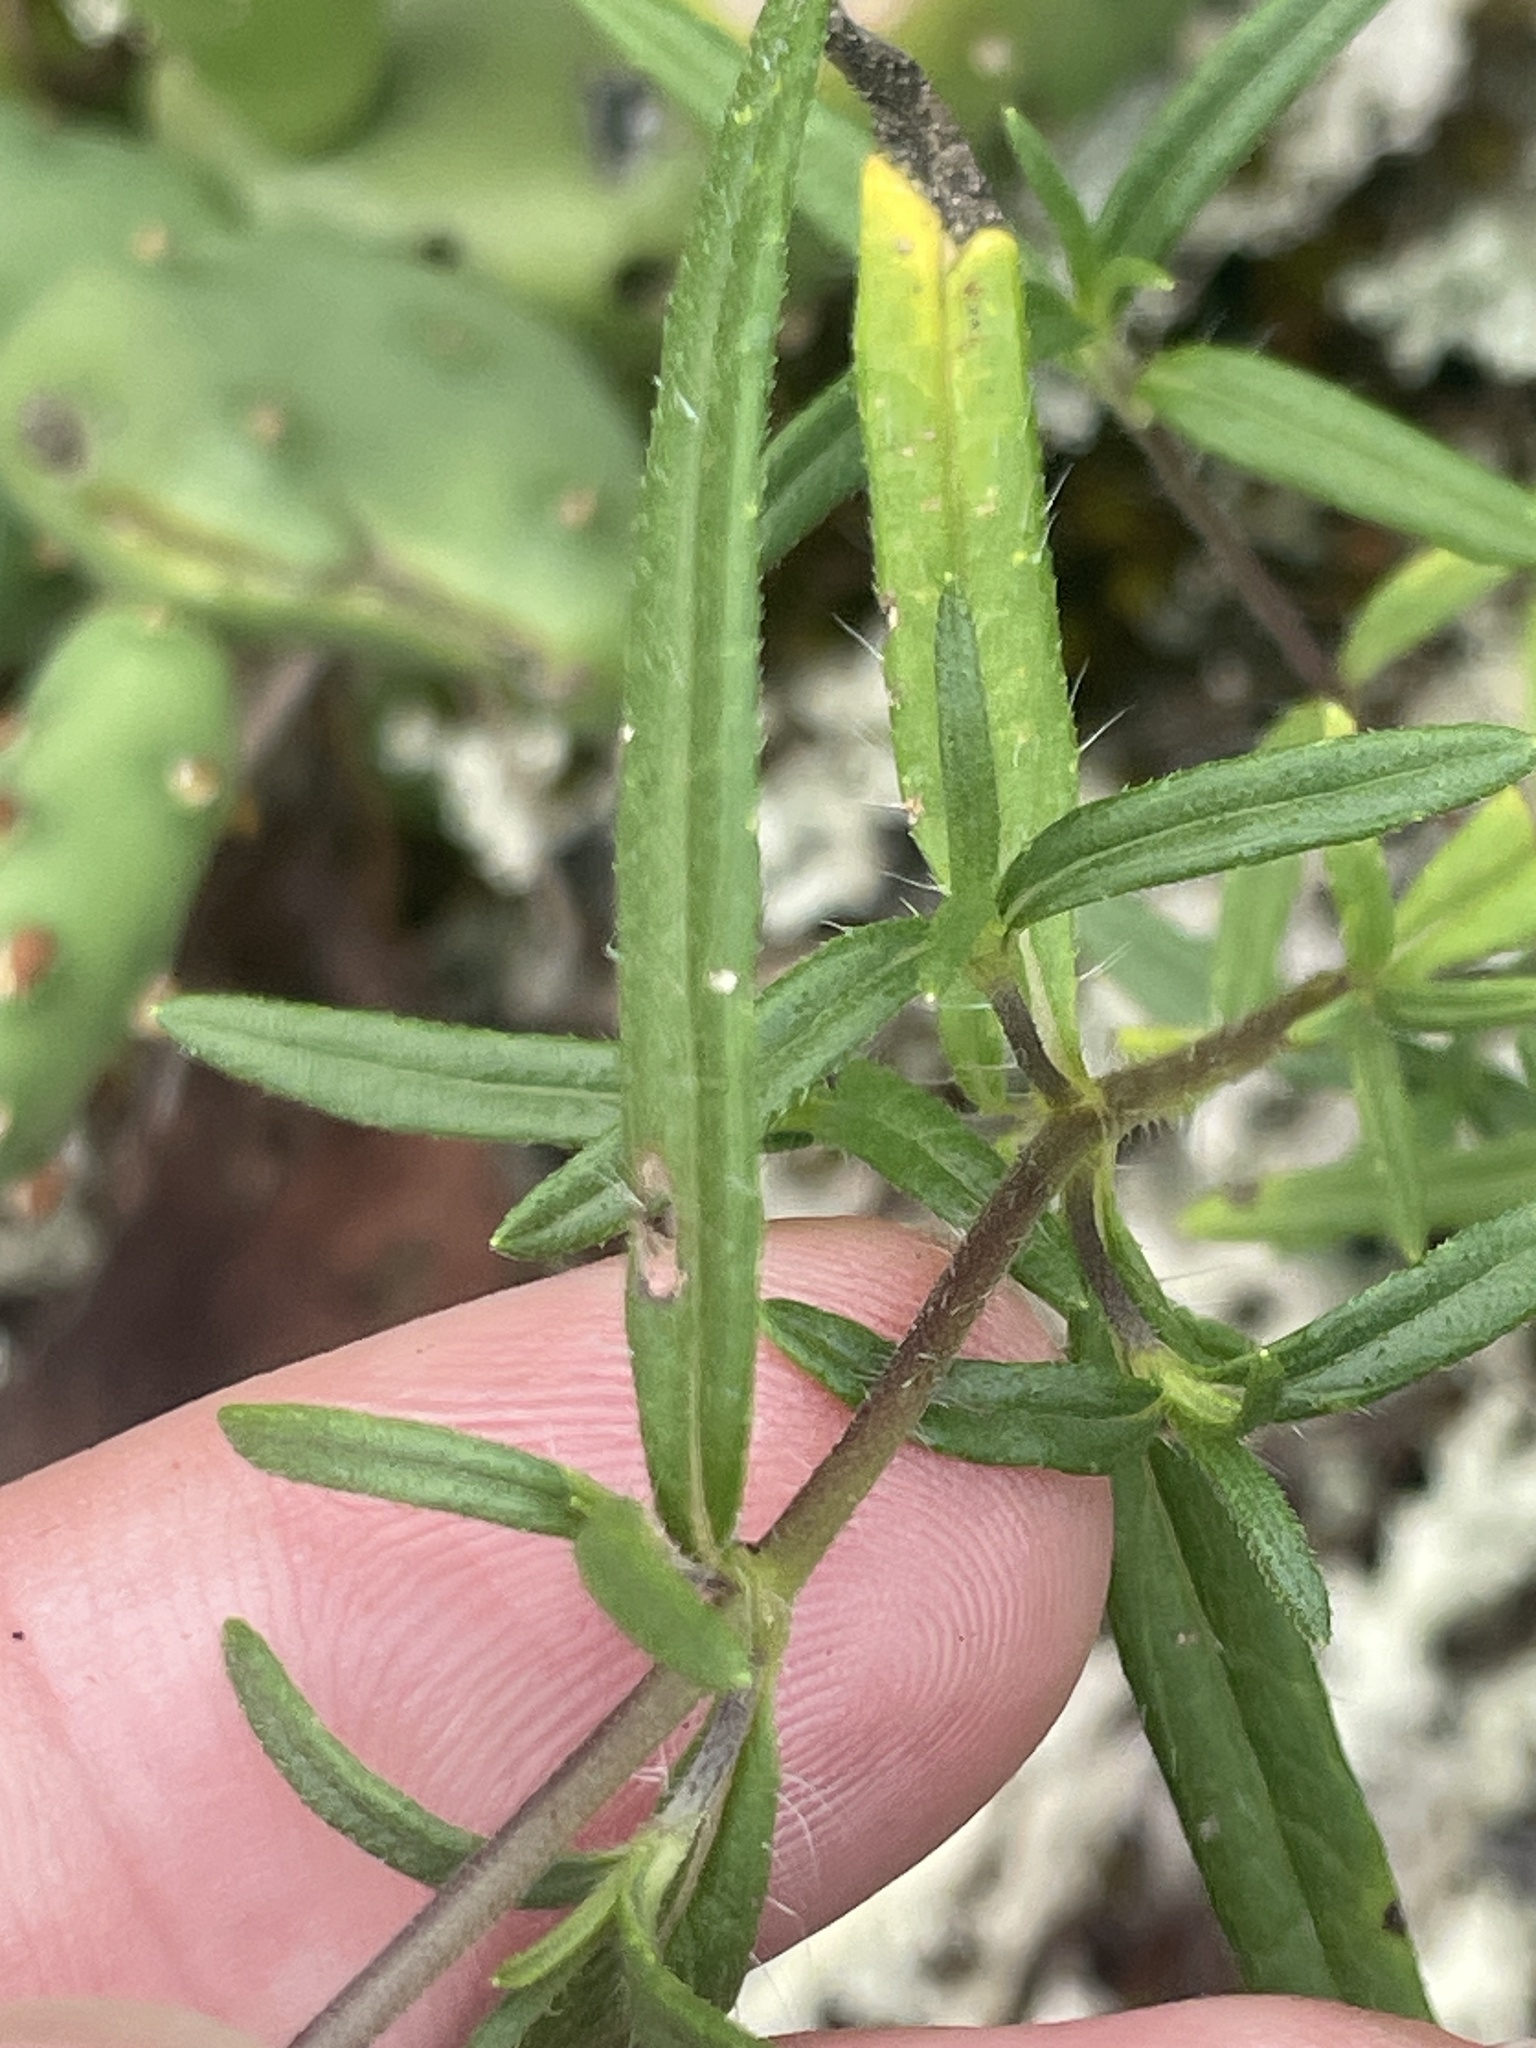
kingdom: Plantae
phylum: Tracheophyta
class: Magnoliopsida
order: Asterales
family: Asteraceae
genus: Helianthus
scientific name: Helianthus porteri
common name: Porter's sunflower
